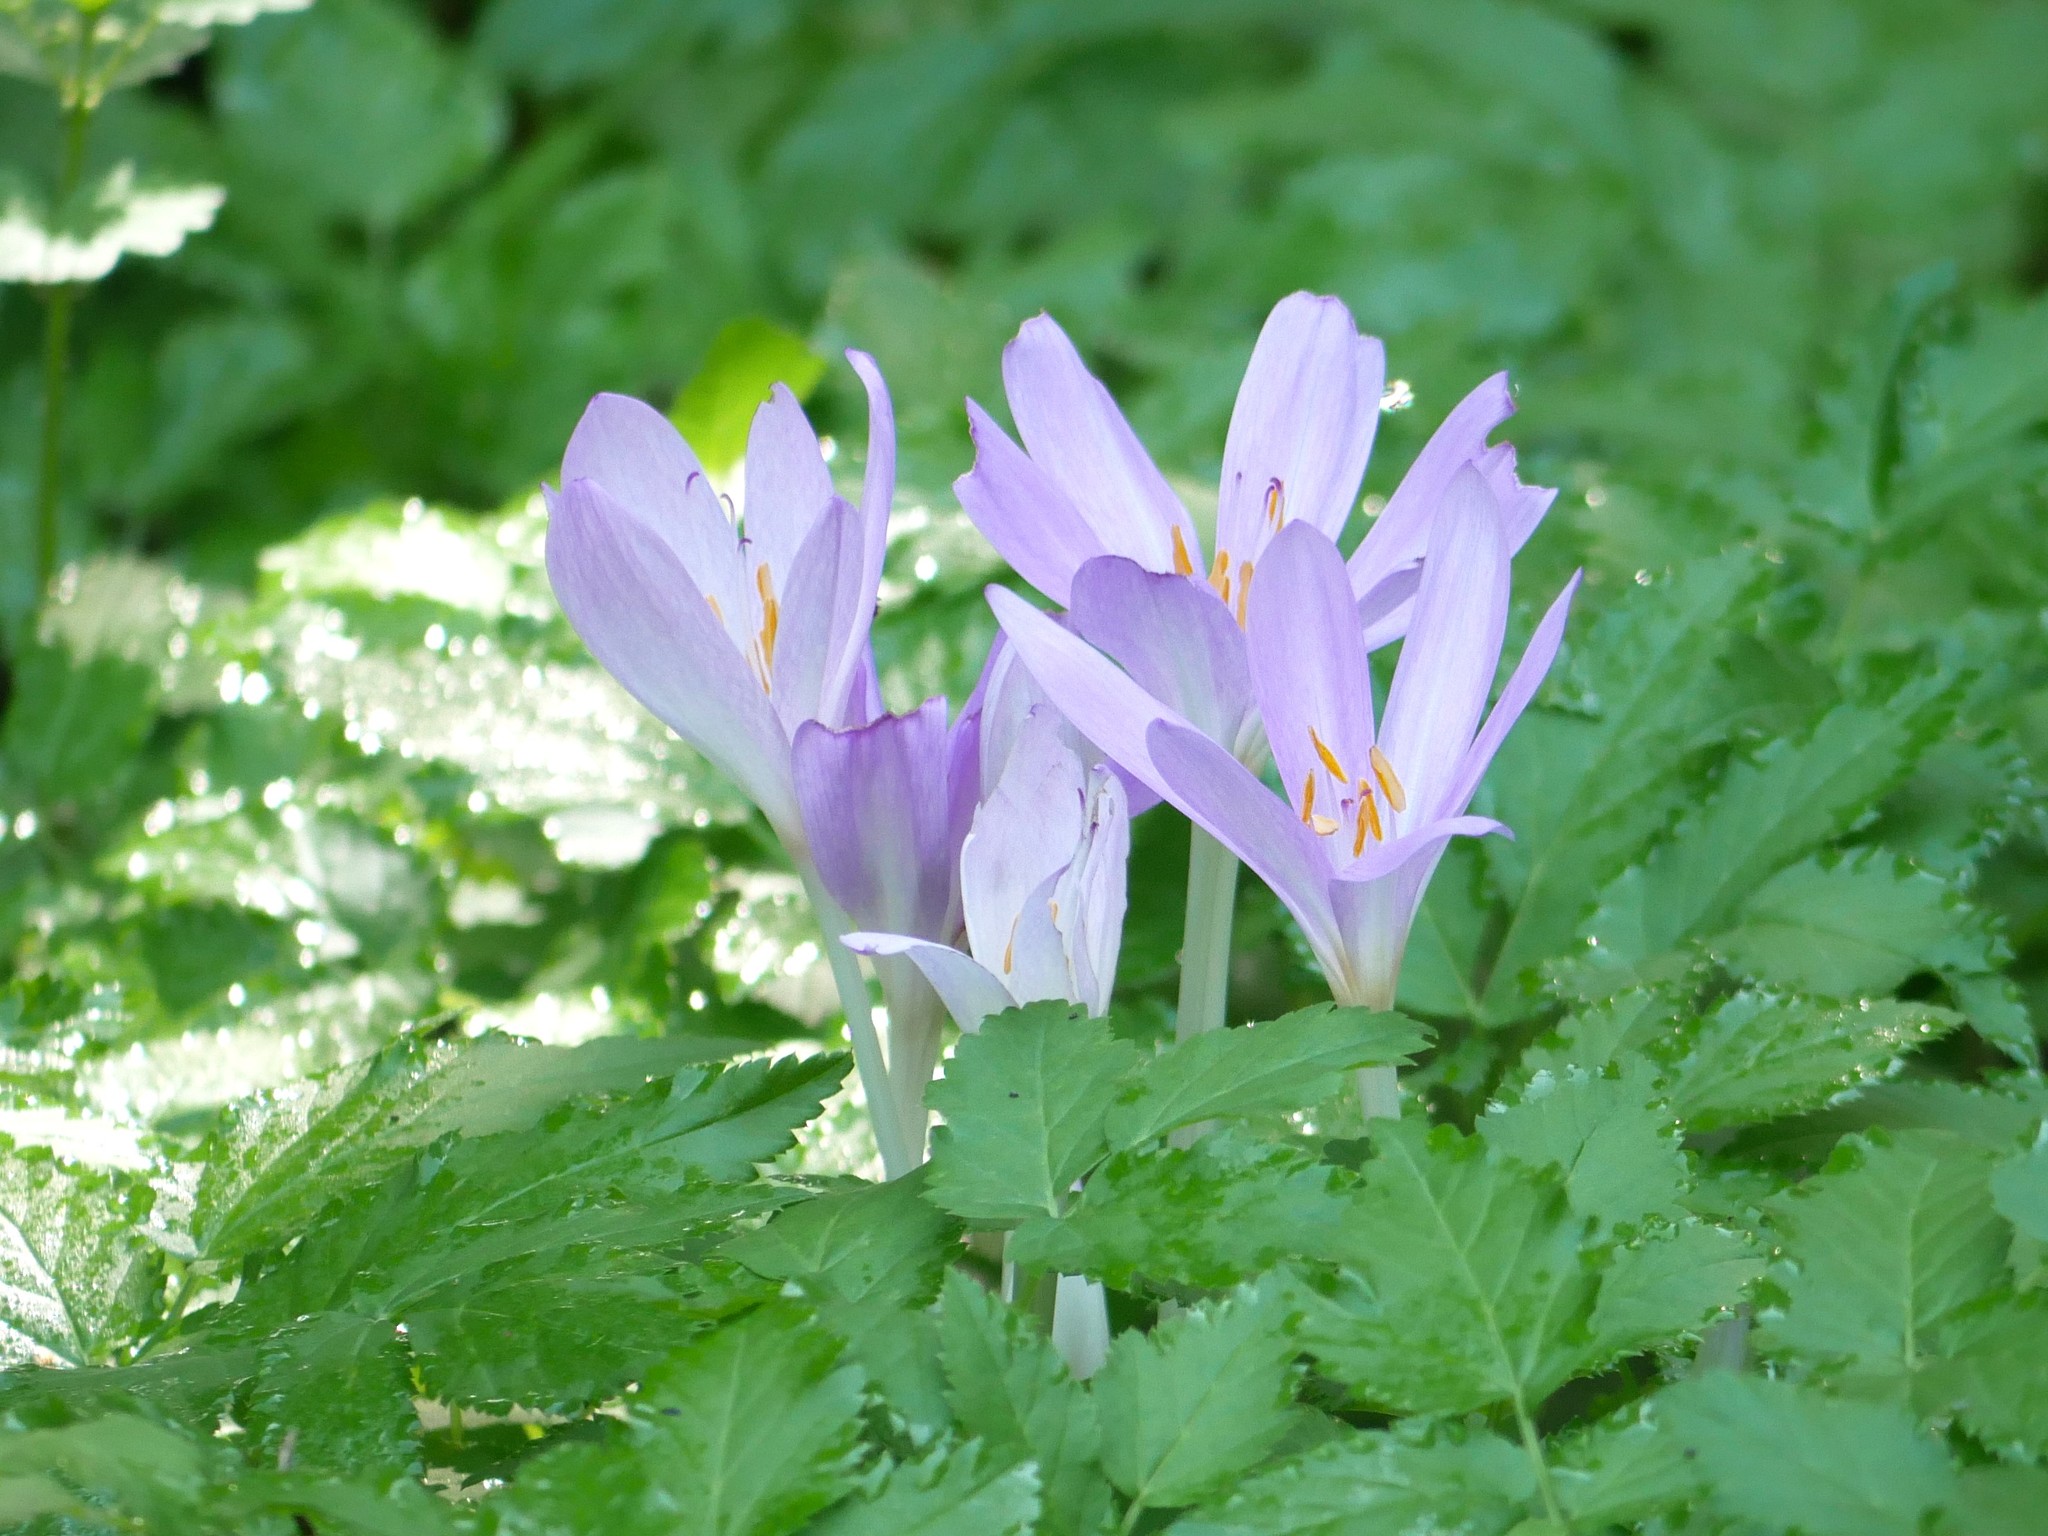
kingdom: Plantae
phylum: Tracheophyta
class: Liliopsida
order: Liliales
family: Colchicaceae
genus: Colchicum
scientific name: Colchicum autumnale
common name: Autumn crocus
